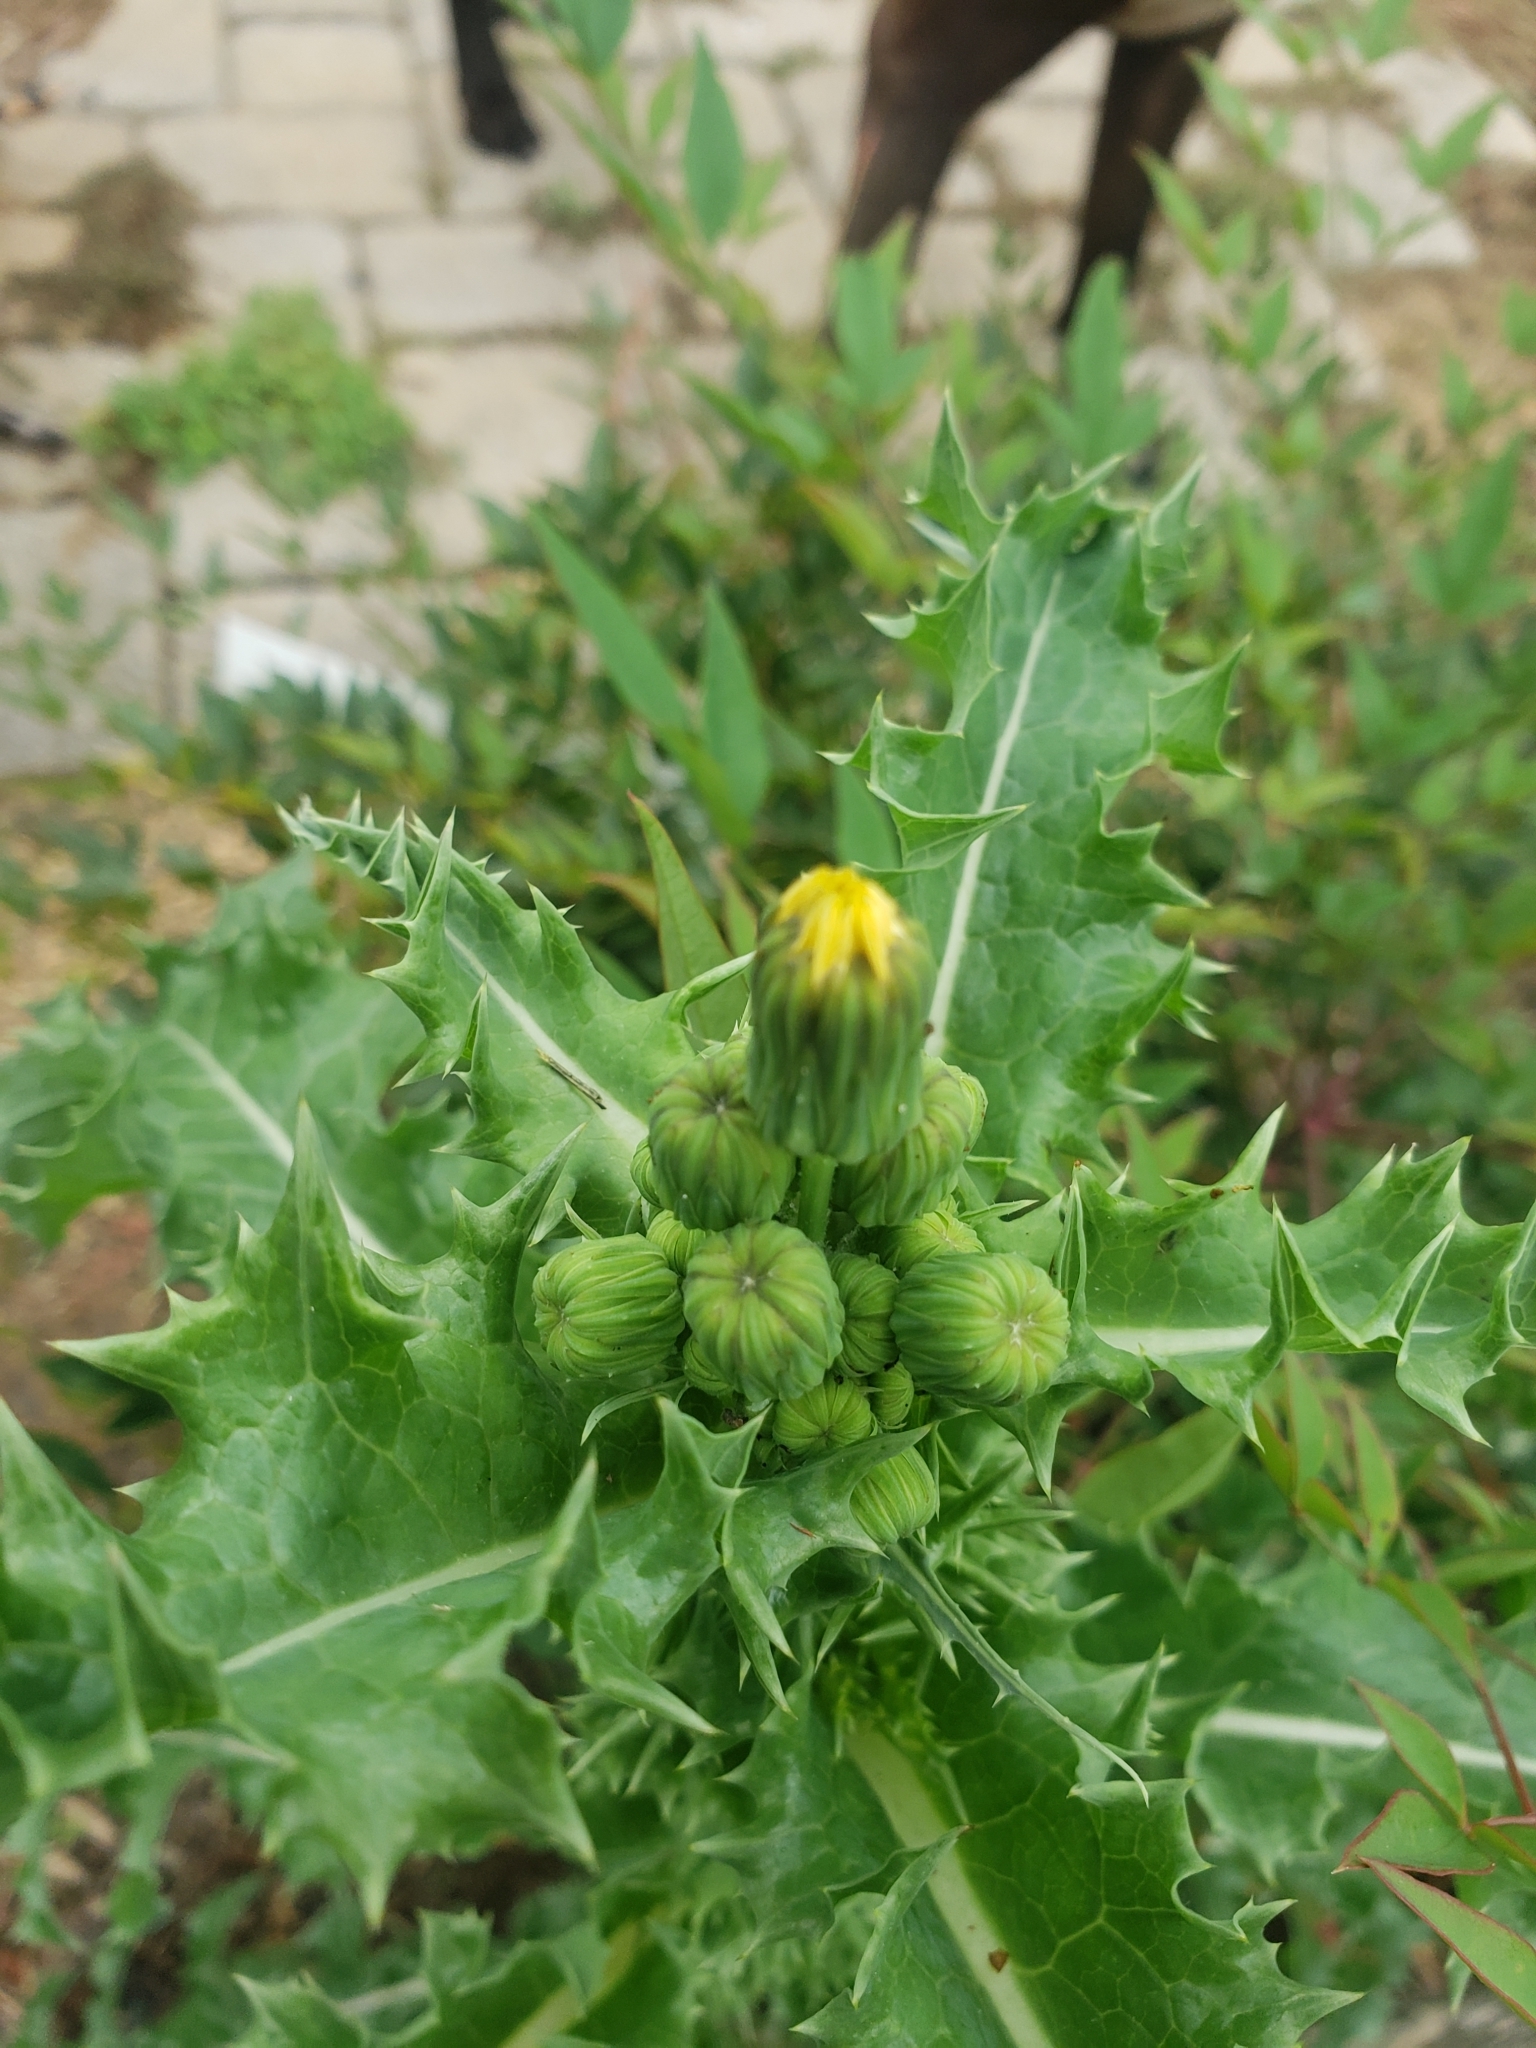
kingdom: Plantae
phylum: Tracheophyta
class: Magnoliopsida
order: Asterales
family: Asteraceae
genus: Sonchus
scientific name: Sonchus asper
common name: Prickly sow-thistle
